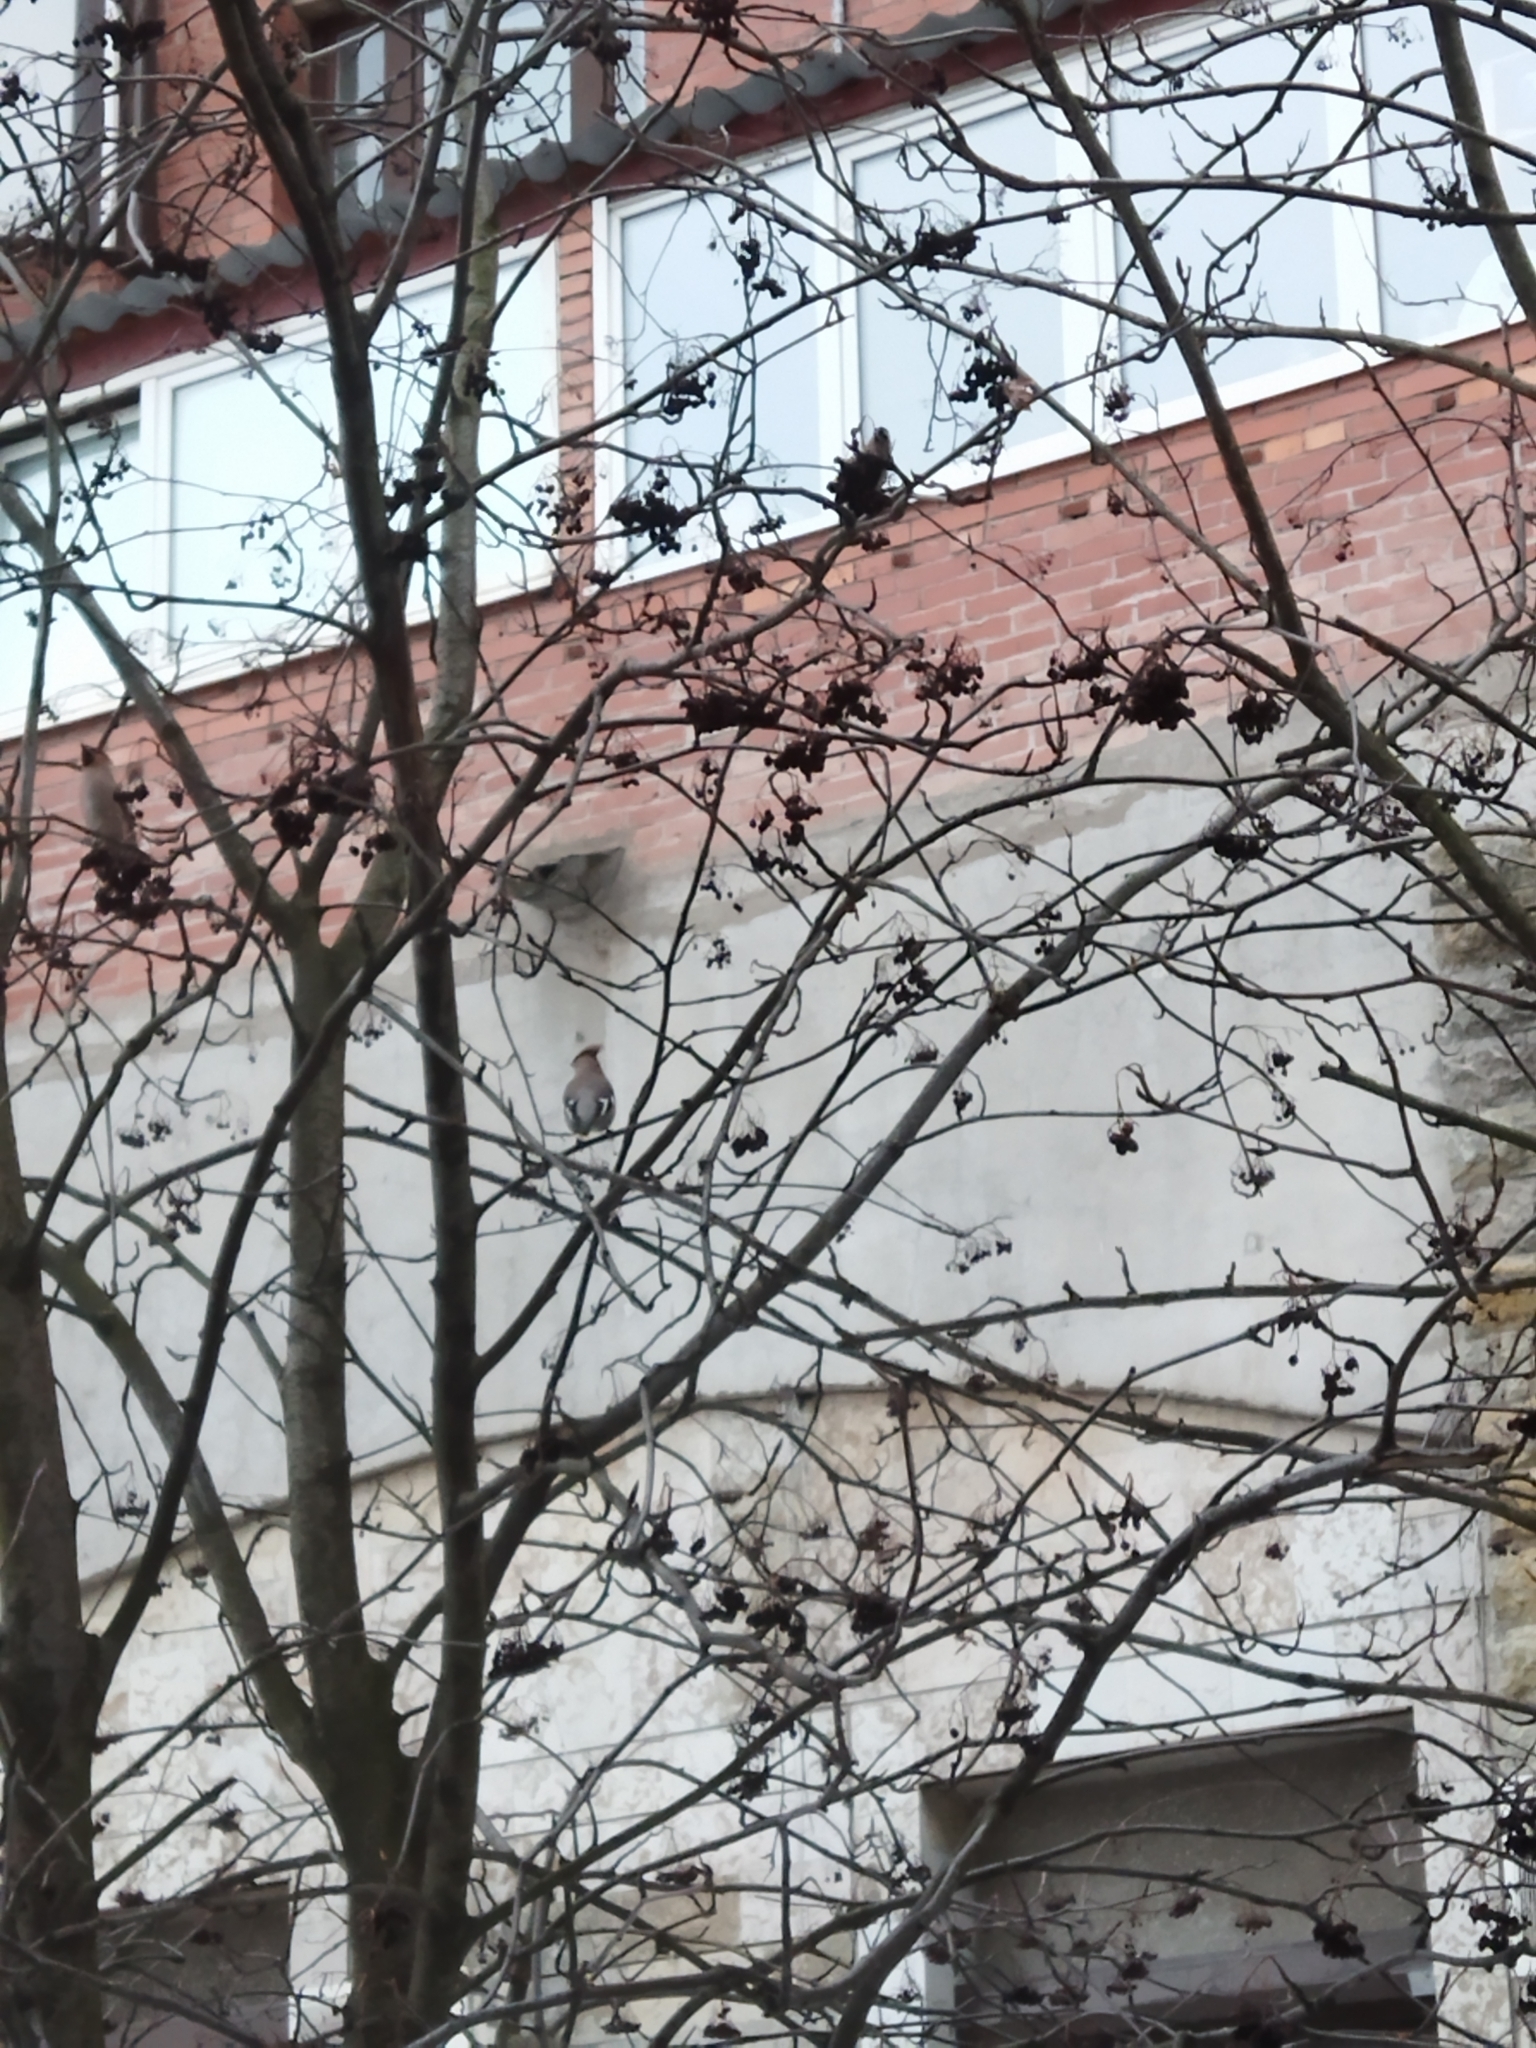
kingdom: Animalia
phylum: Chordata
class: Aves
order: Passeriformes
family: Bombycillidae
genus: Bombycilla
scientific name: Bombycilla garrulus
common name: Bohemian waxwing
